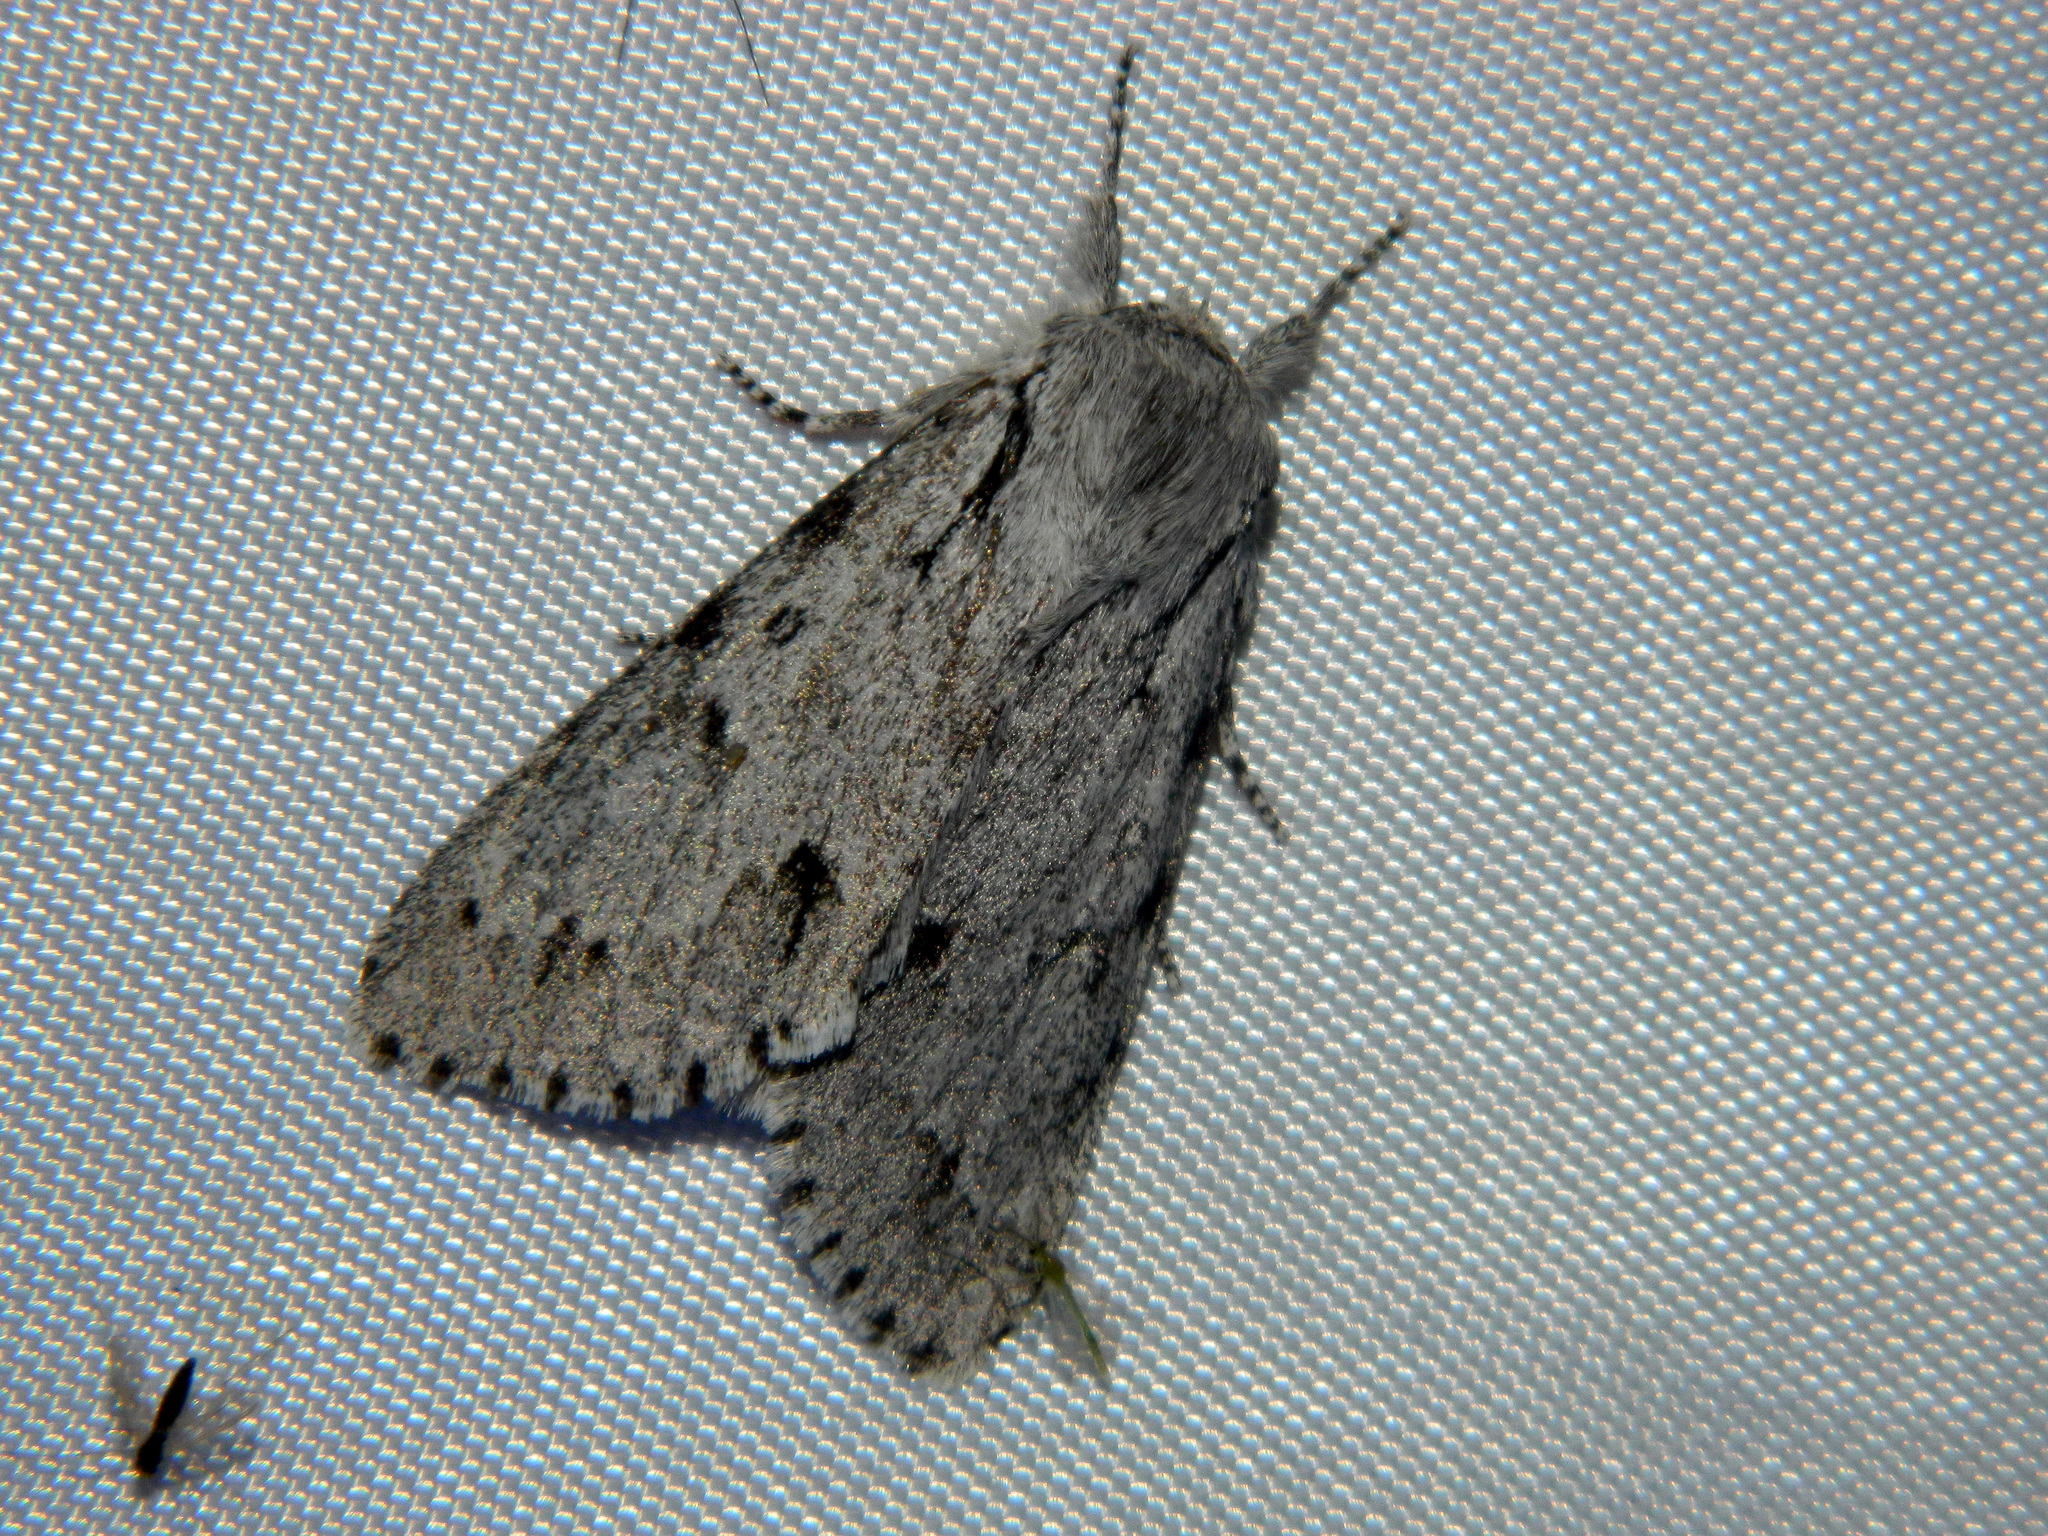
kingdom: Animalia
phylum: Arthropoda
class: Insecta
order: Lepidoptera
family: Noctuidae
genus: Acronicta
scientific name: Acronicta lepusculina
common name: Cottonwood dagger
